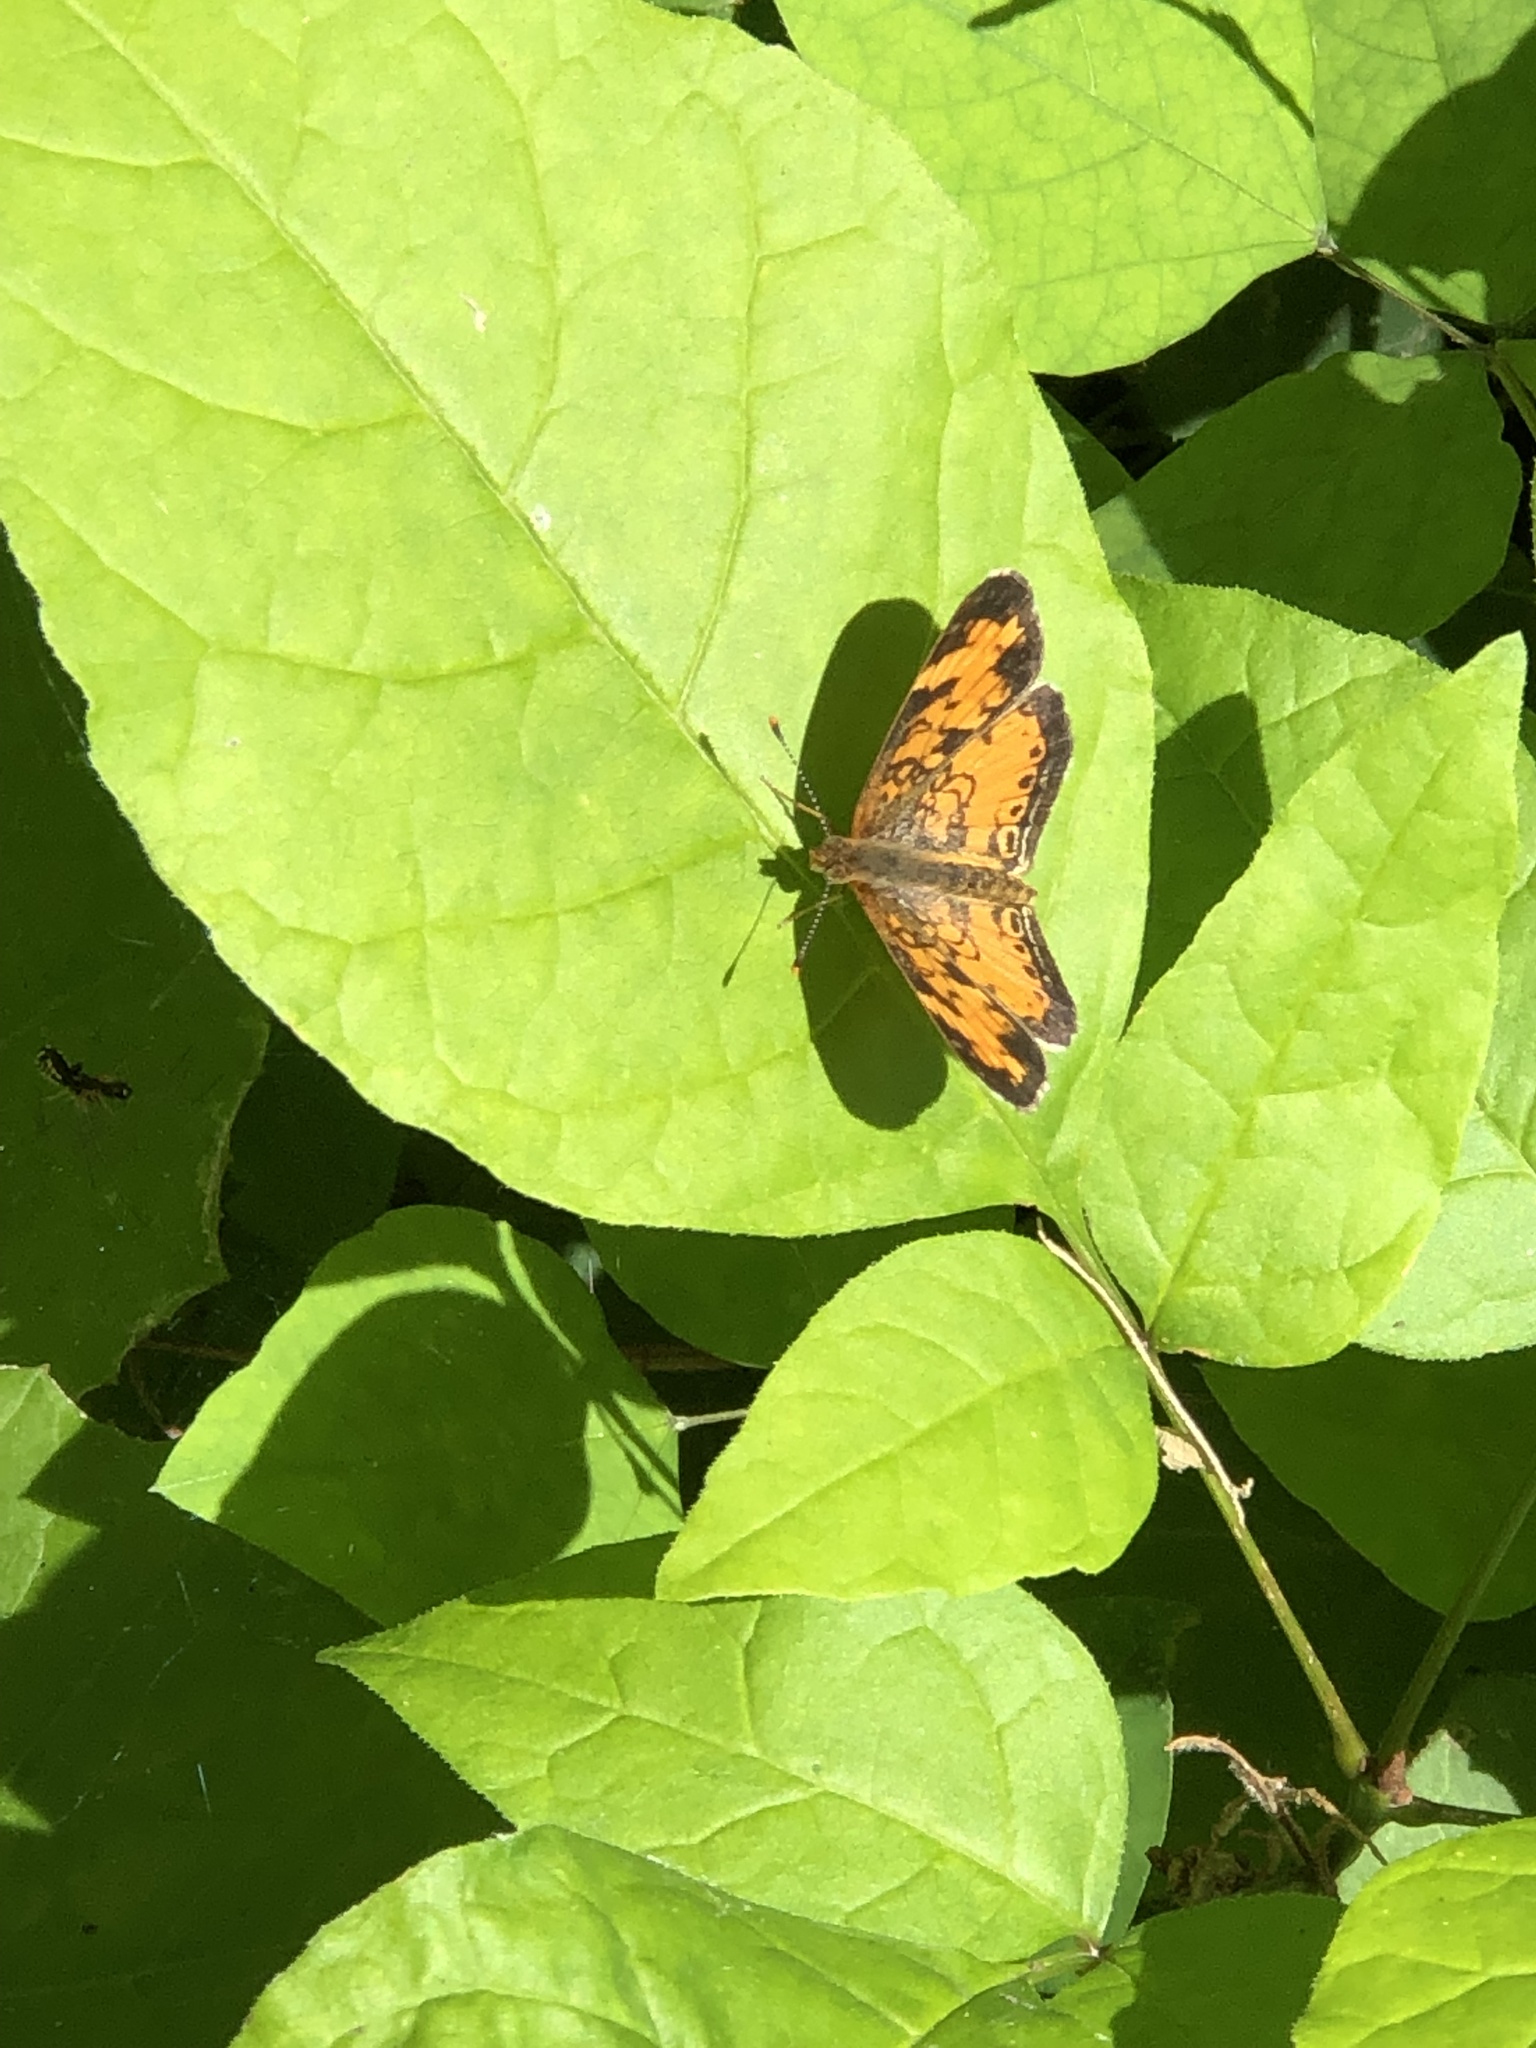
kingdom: Animalia
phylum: Arthropoda
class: Insecta
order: Lepidoptera
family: Nymphalidae
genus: Phyciodes
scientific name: Phyciodes tharos
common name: Pearl crescent
